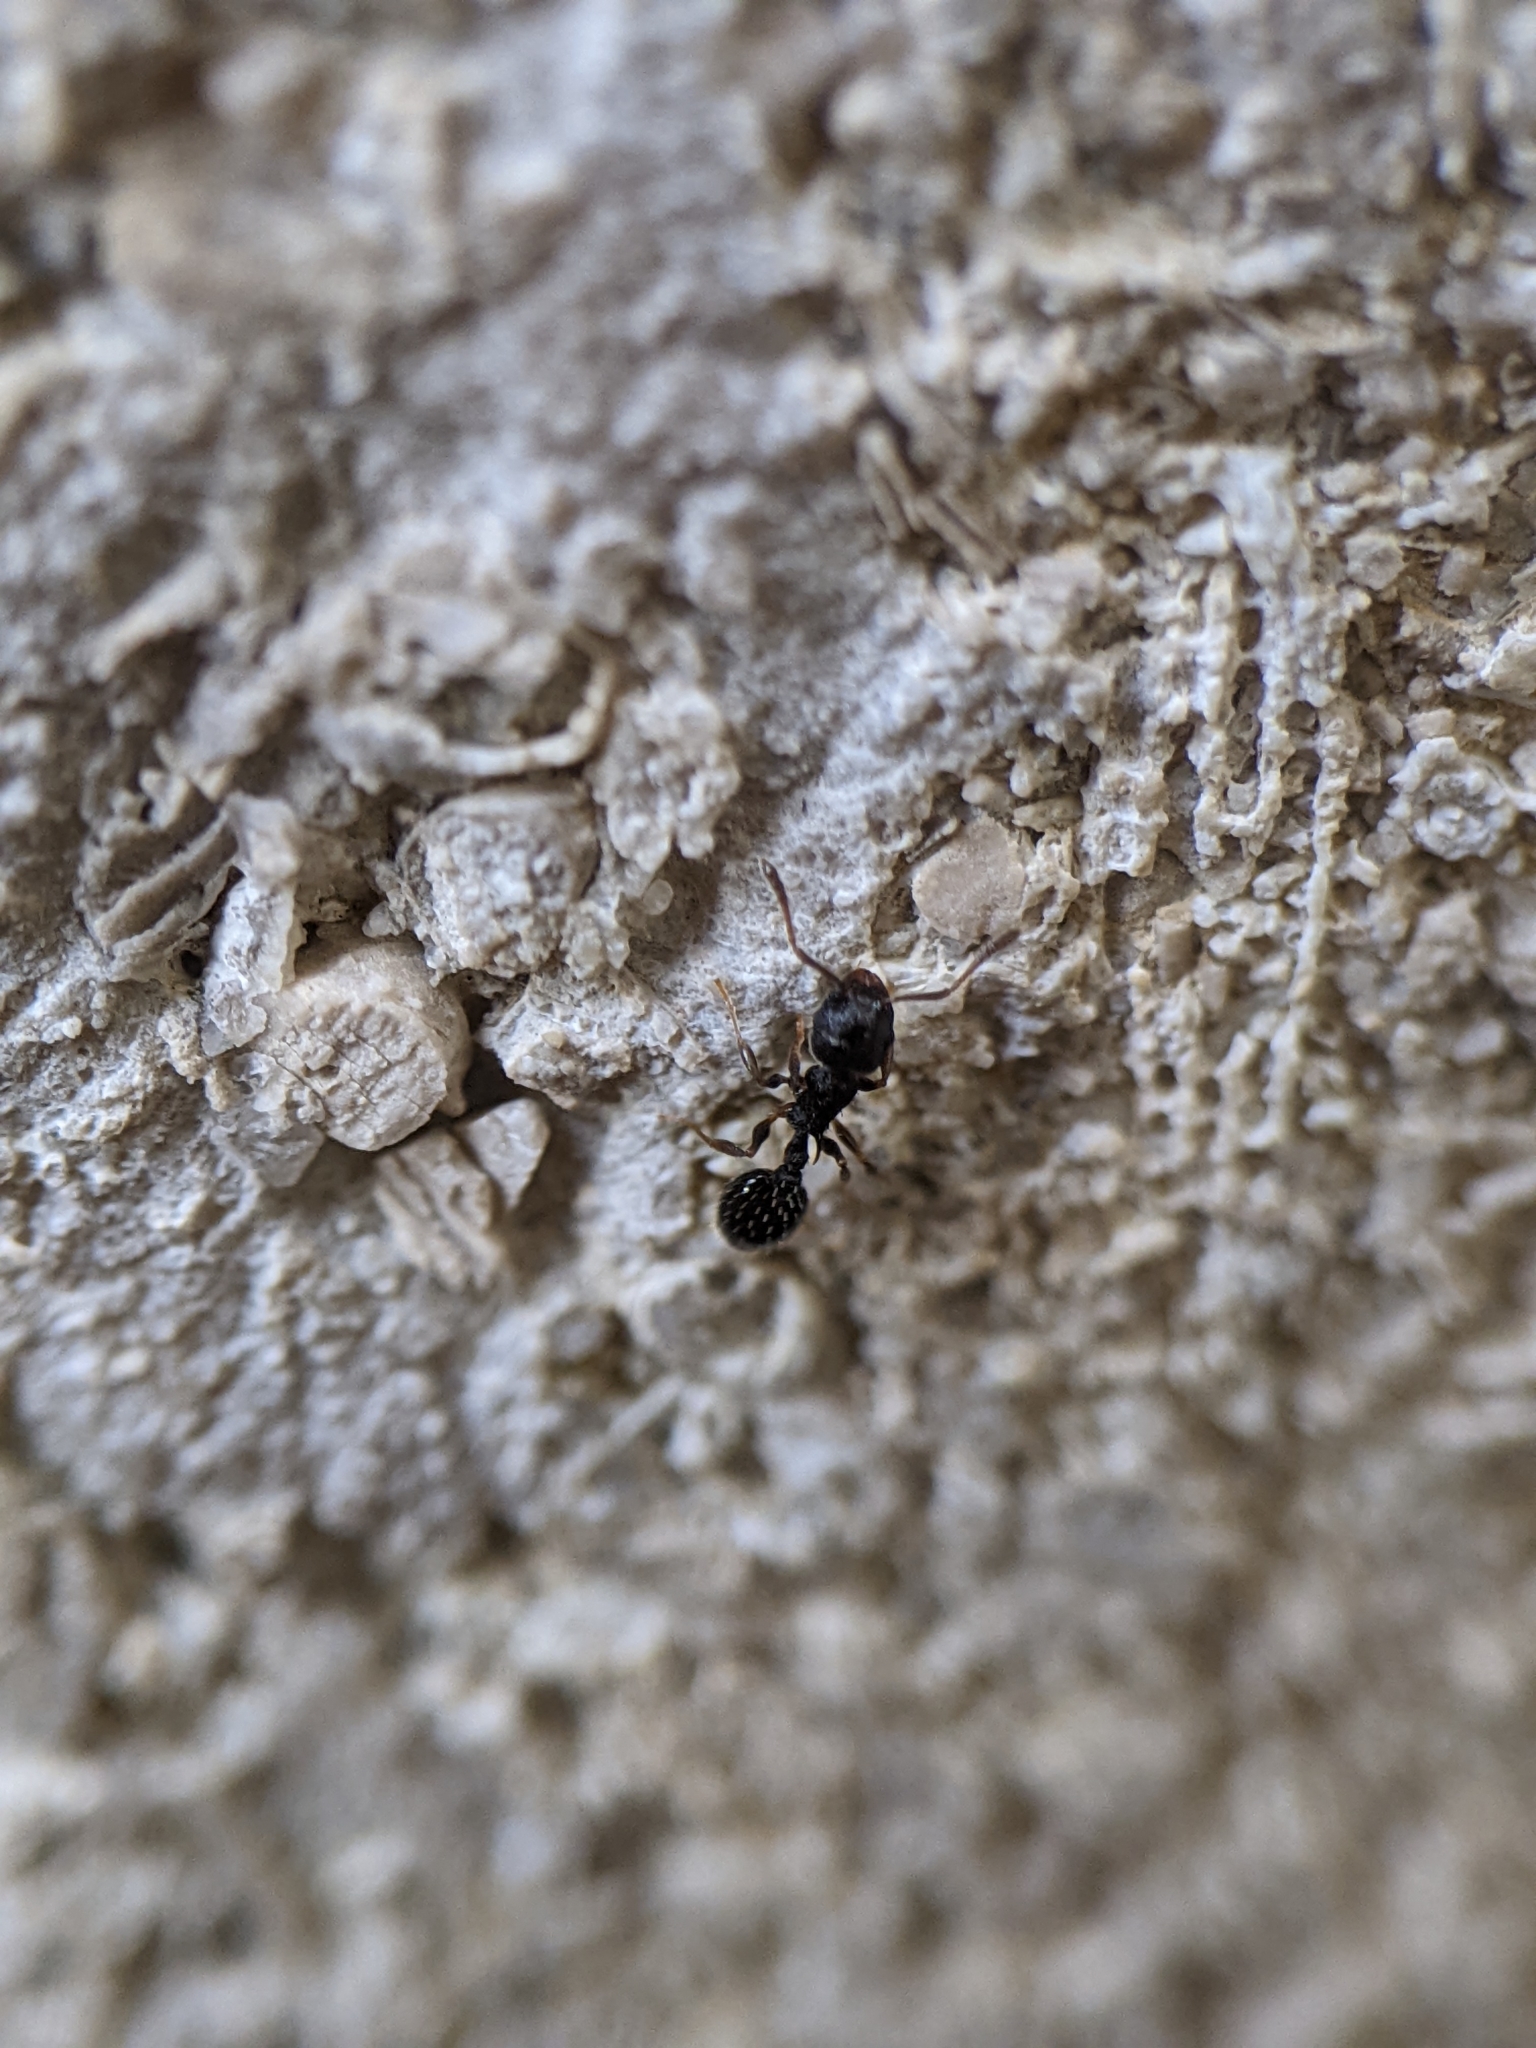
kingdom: Animalia
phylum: Arthropoda
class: Insecta
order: Hymenoptera
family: Formicidae
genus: Temnothorax
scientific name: Temnothorax longispinosus
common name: Long-spined acorn ant
